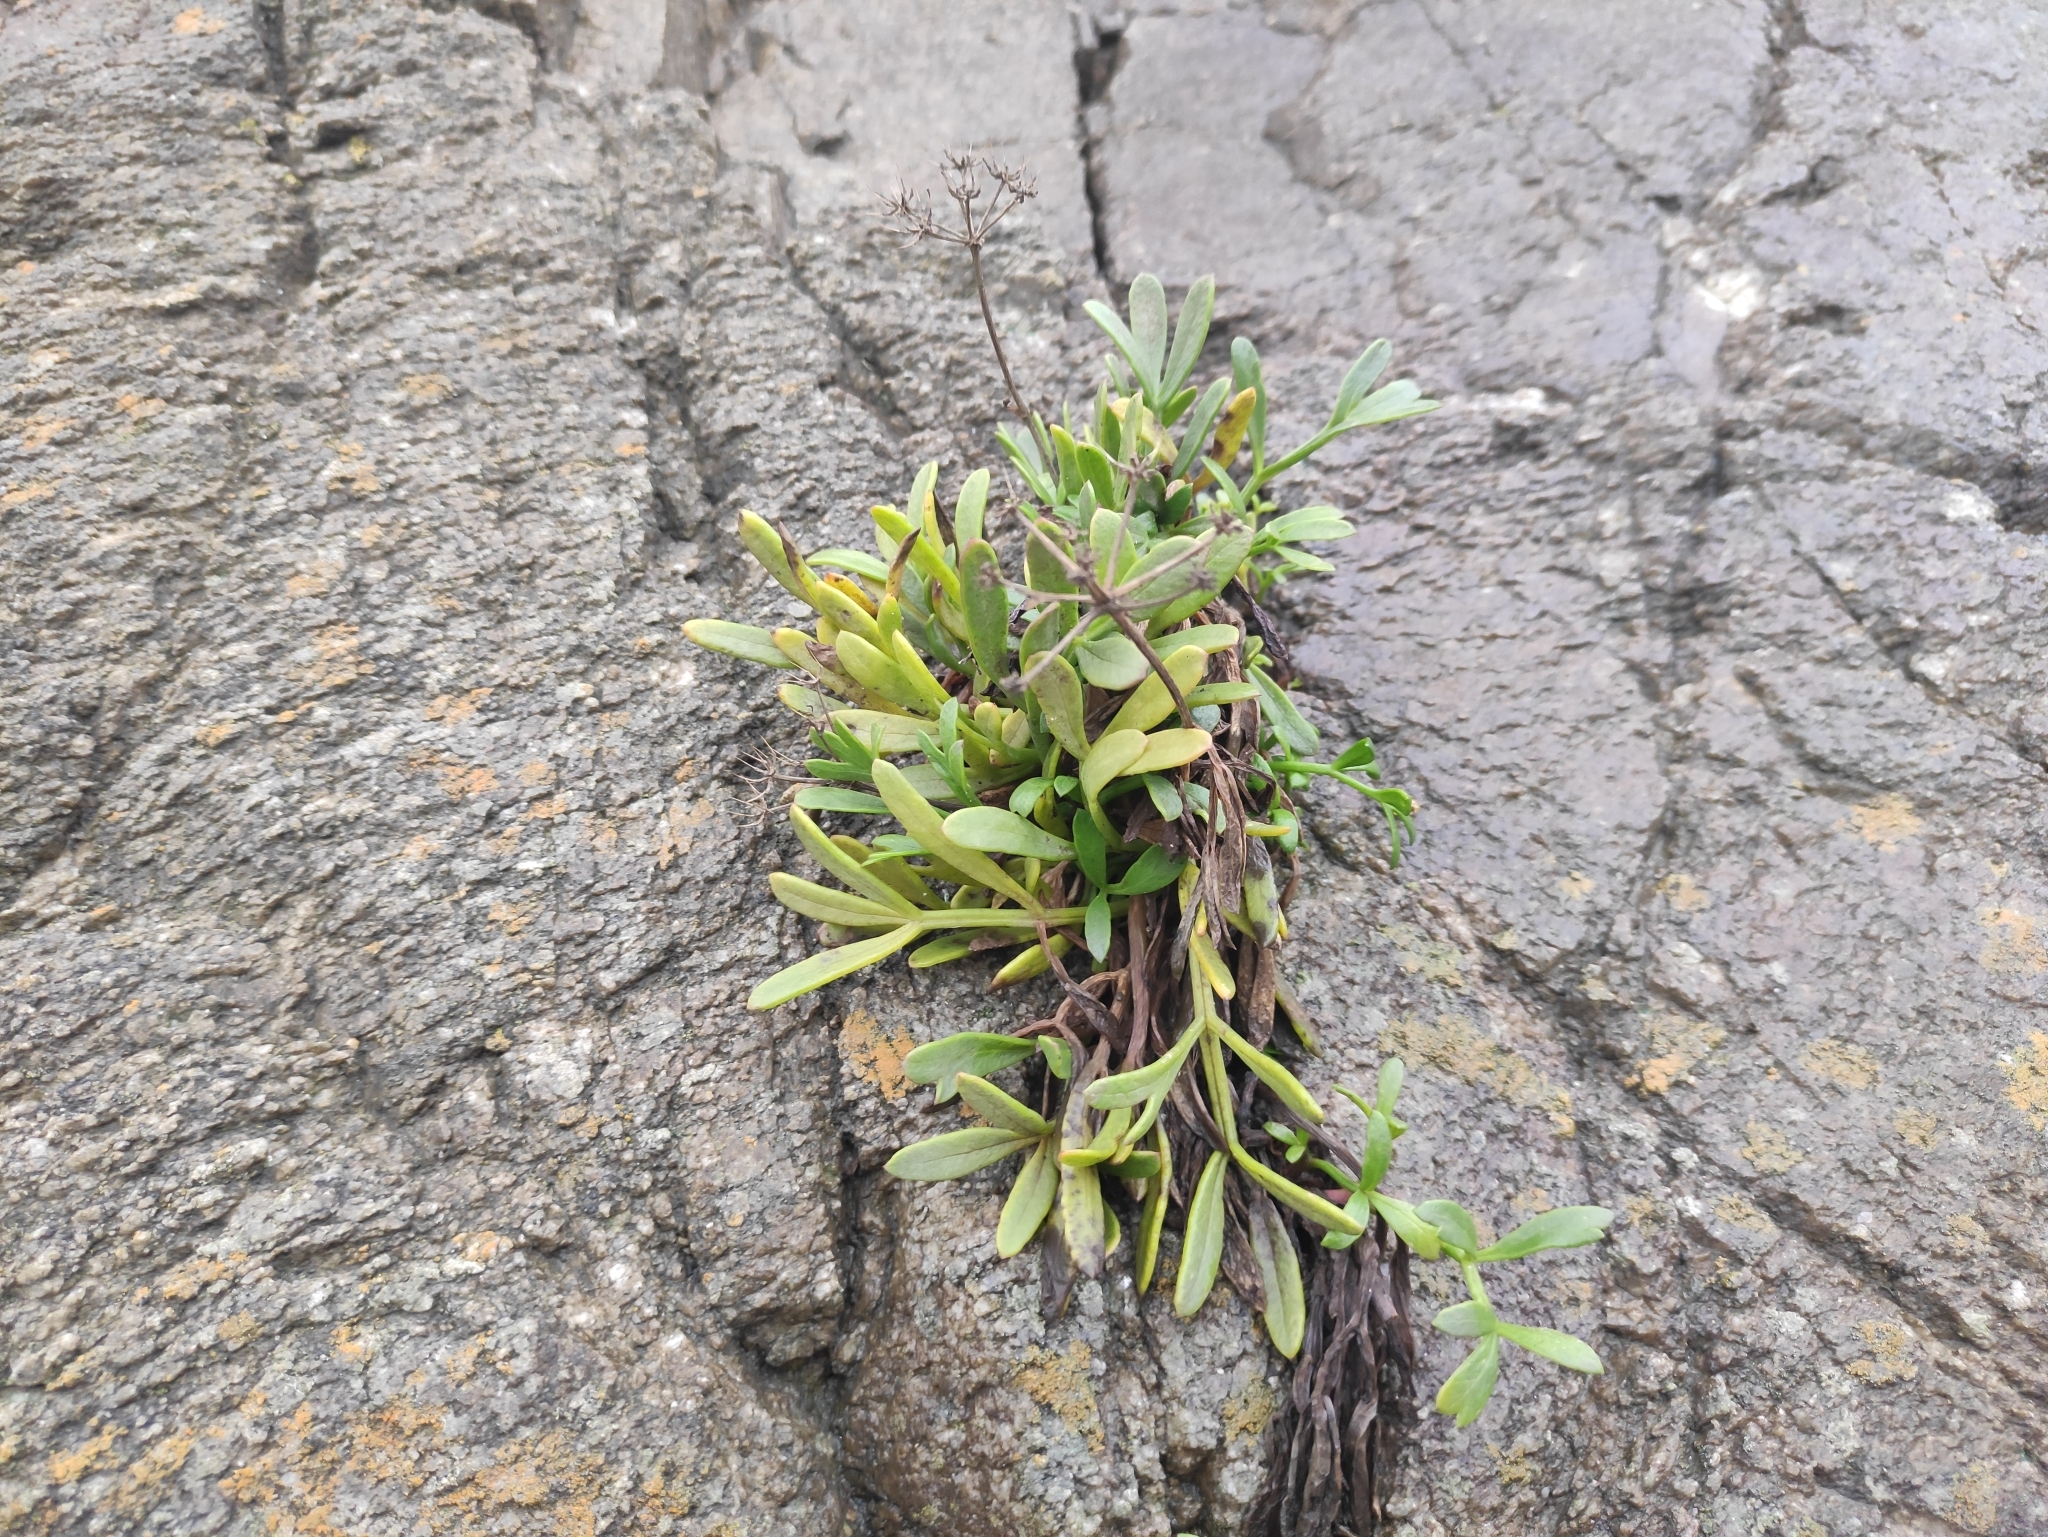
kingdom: Plantae
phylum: Tracheophyta
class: Magnoliopsida
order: Apiales
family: Apiaceae
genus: Crithmum
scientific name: Crithmum maritimum
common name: Rock samphire
